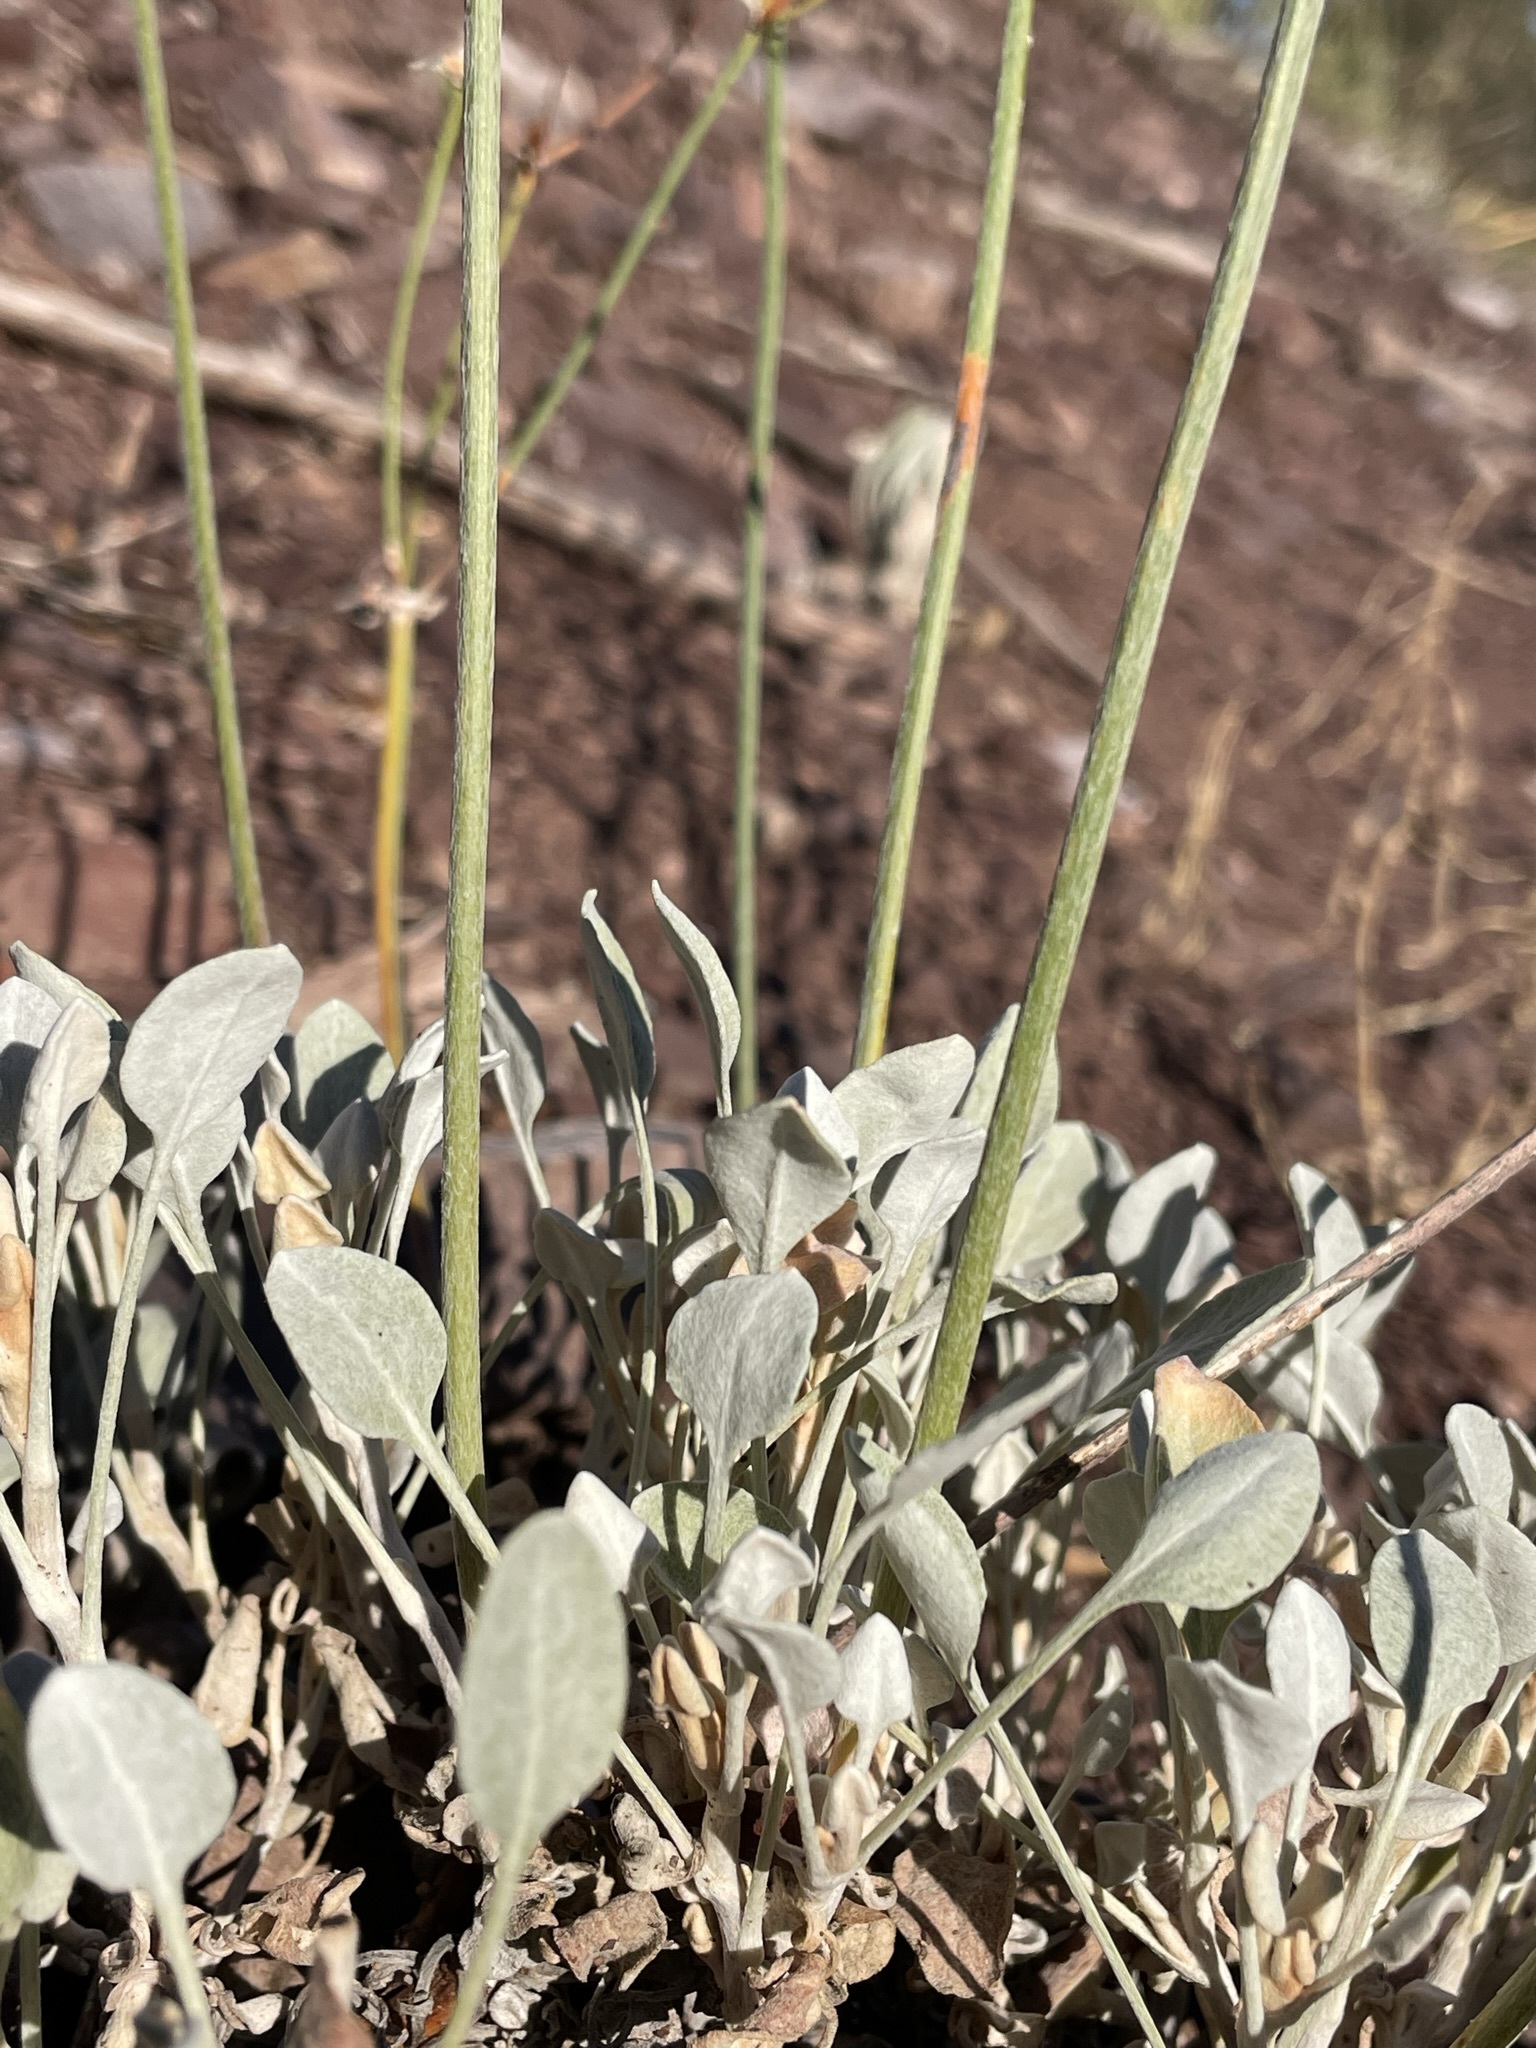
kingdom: Plantae
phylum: Tracheophyta
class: Magnoliopsida
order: Caryophyllales
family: Polygonaceae
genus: Eriogonum
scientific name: Eriogonum niveum
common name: Snow wild buckwheat
